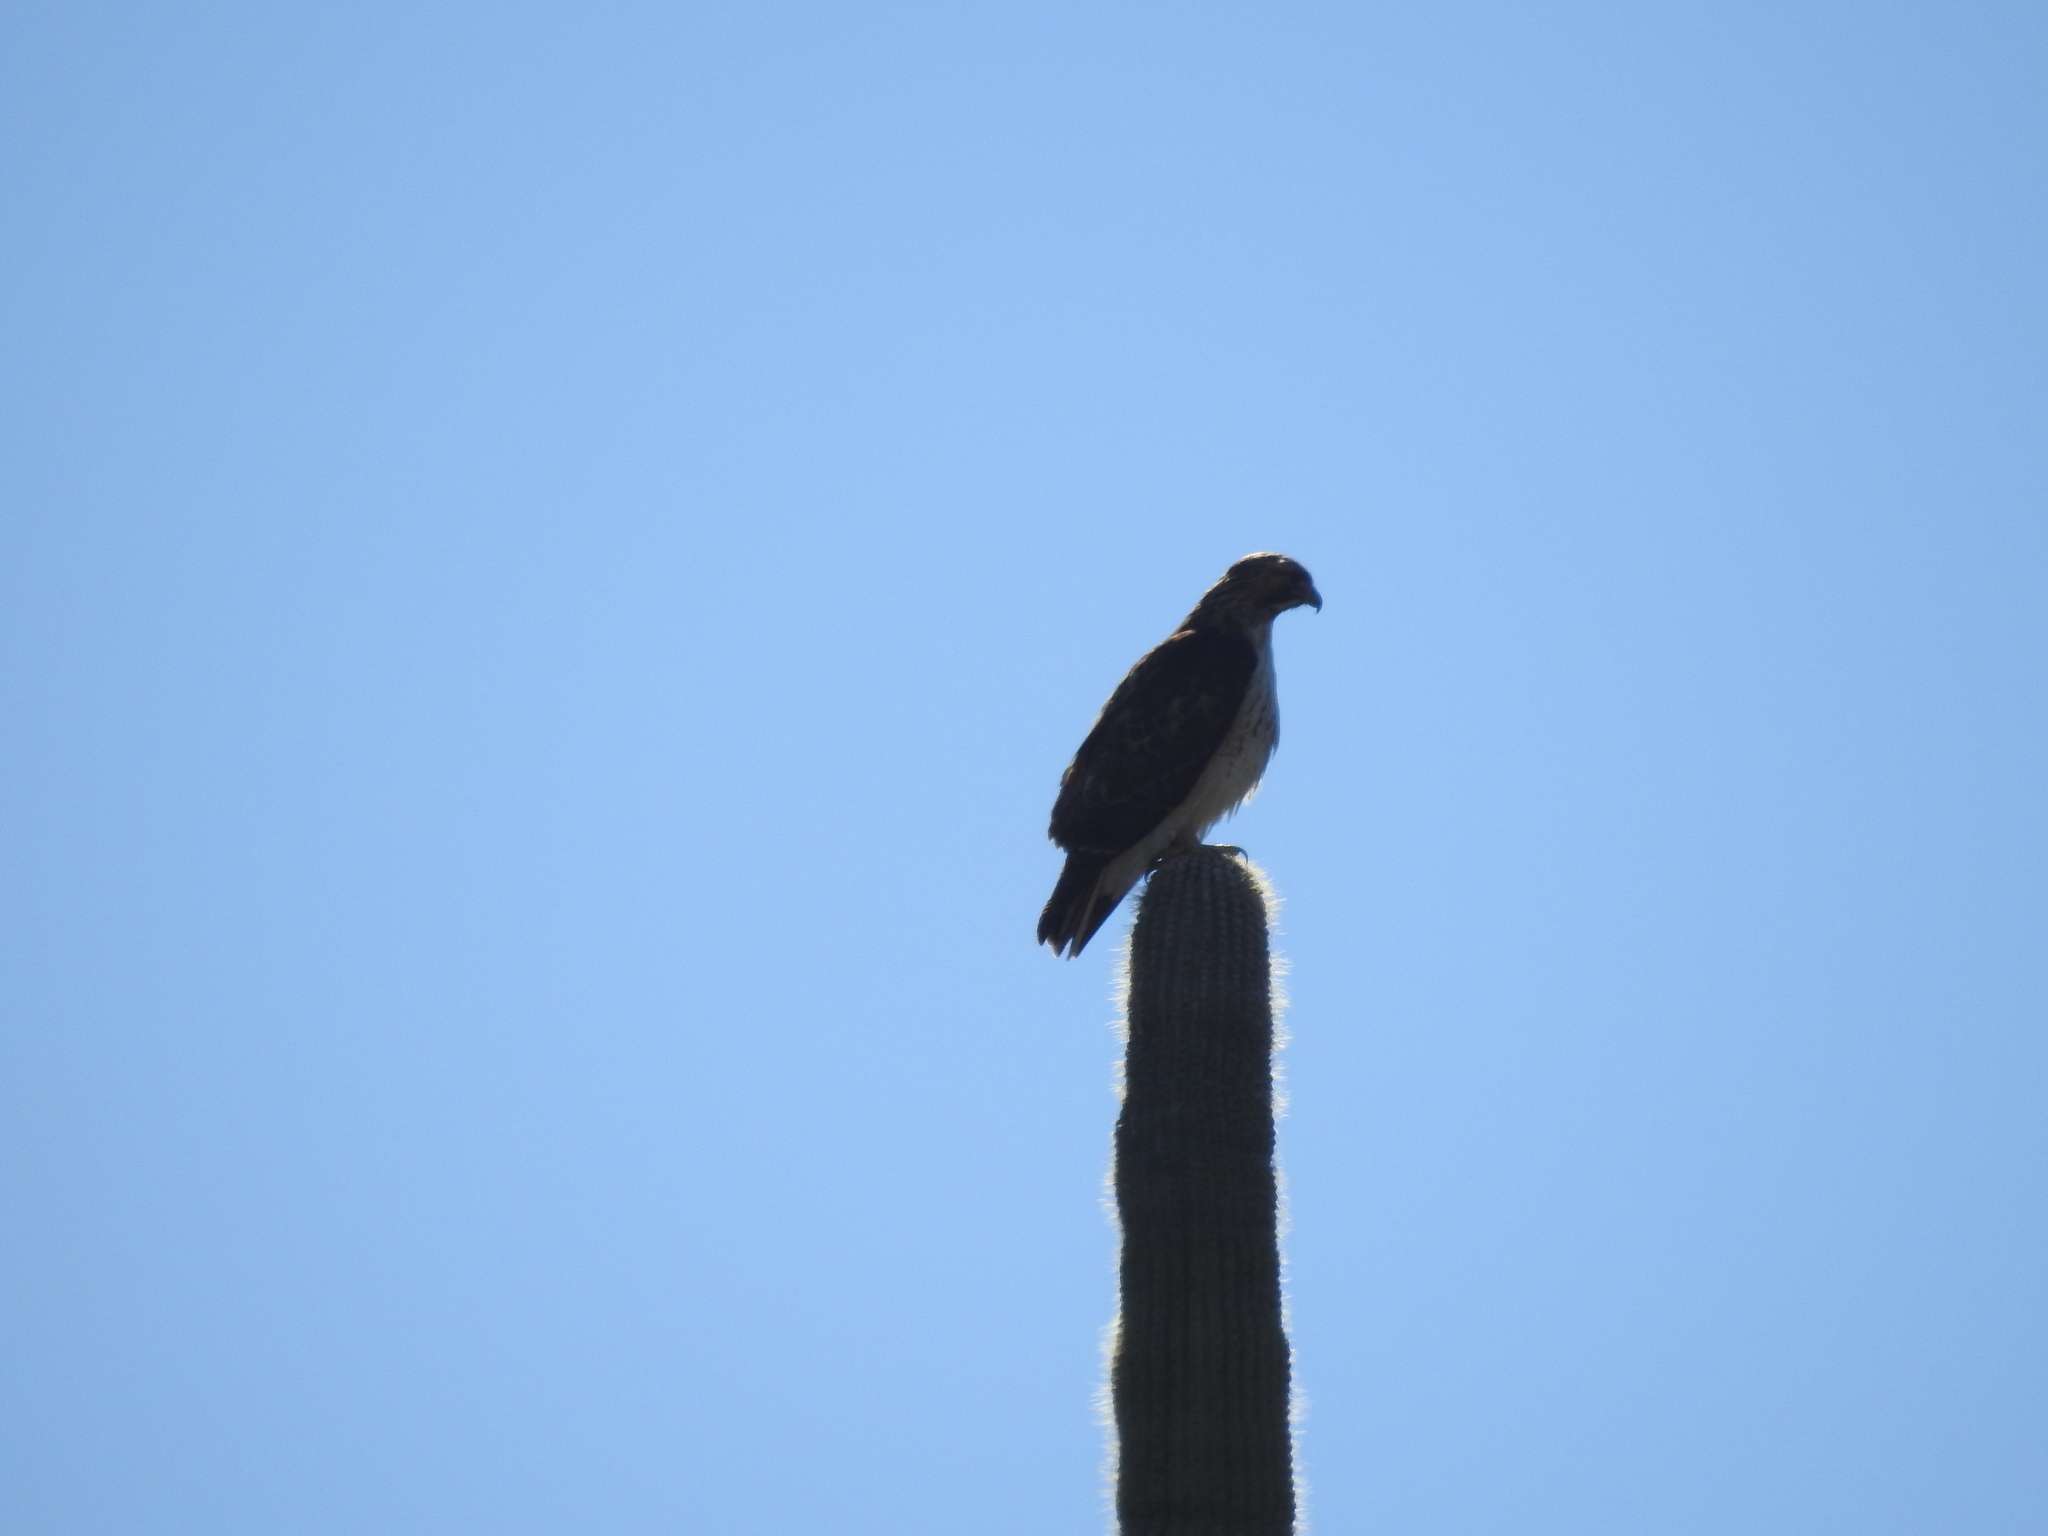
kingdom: Animalia
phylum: Chordata
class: Aves
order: Accipitriformes
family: Accipitridae
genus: Buteo
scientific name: Buteo jamaicensis
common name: Red-tailed hawk
